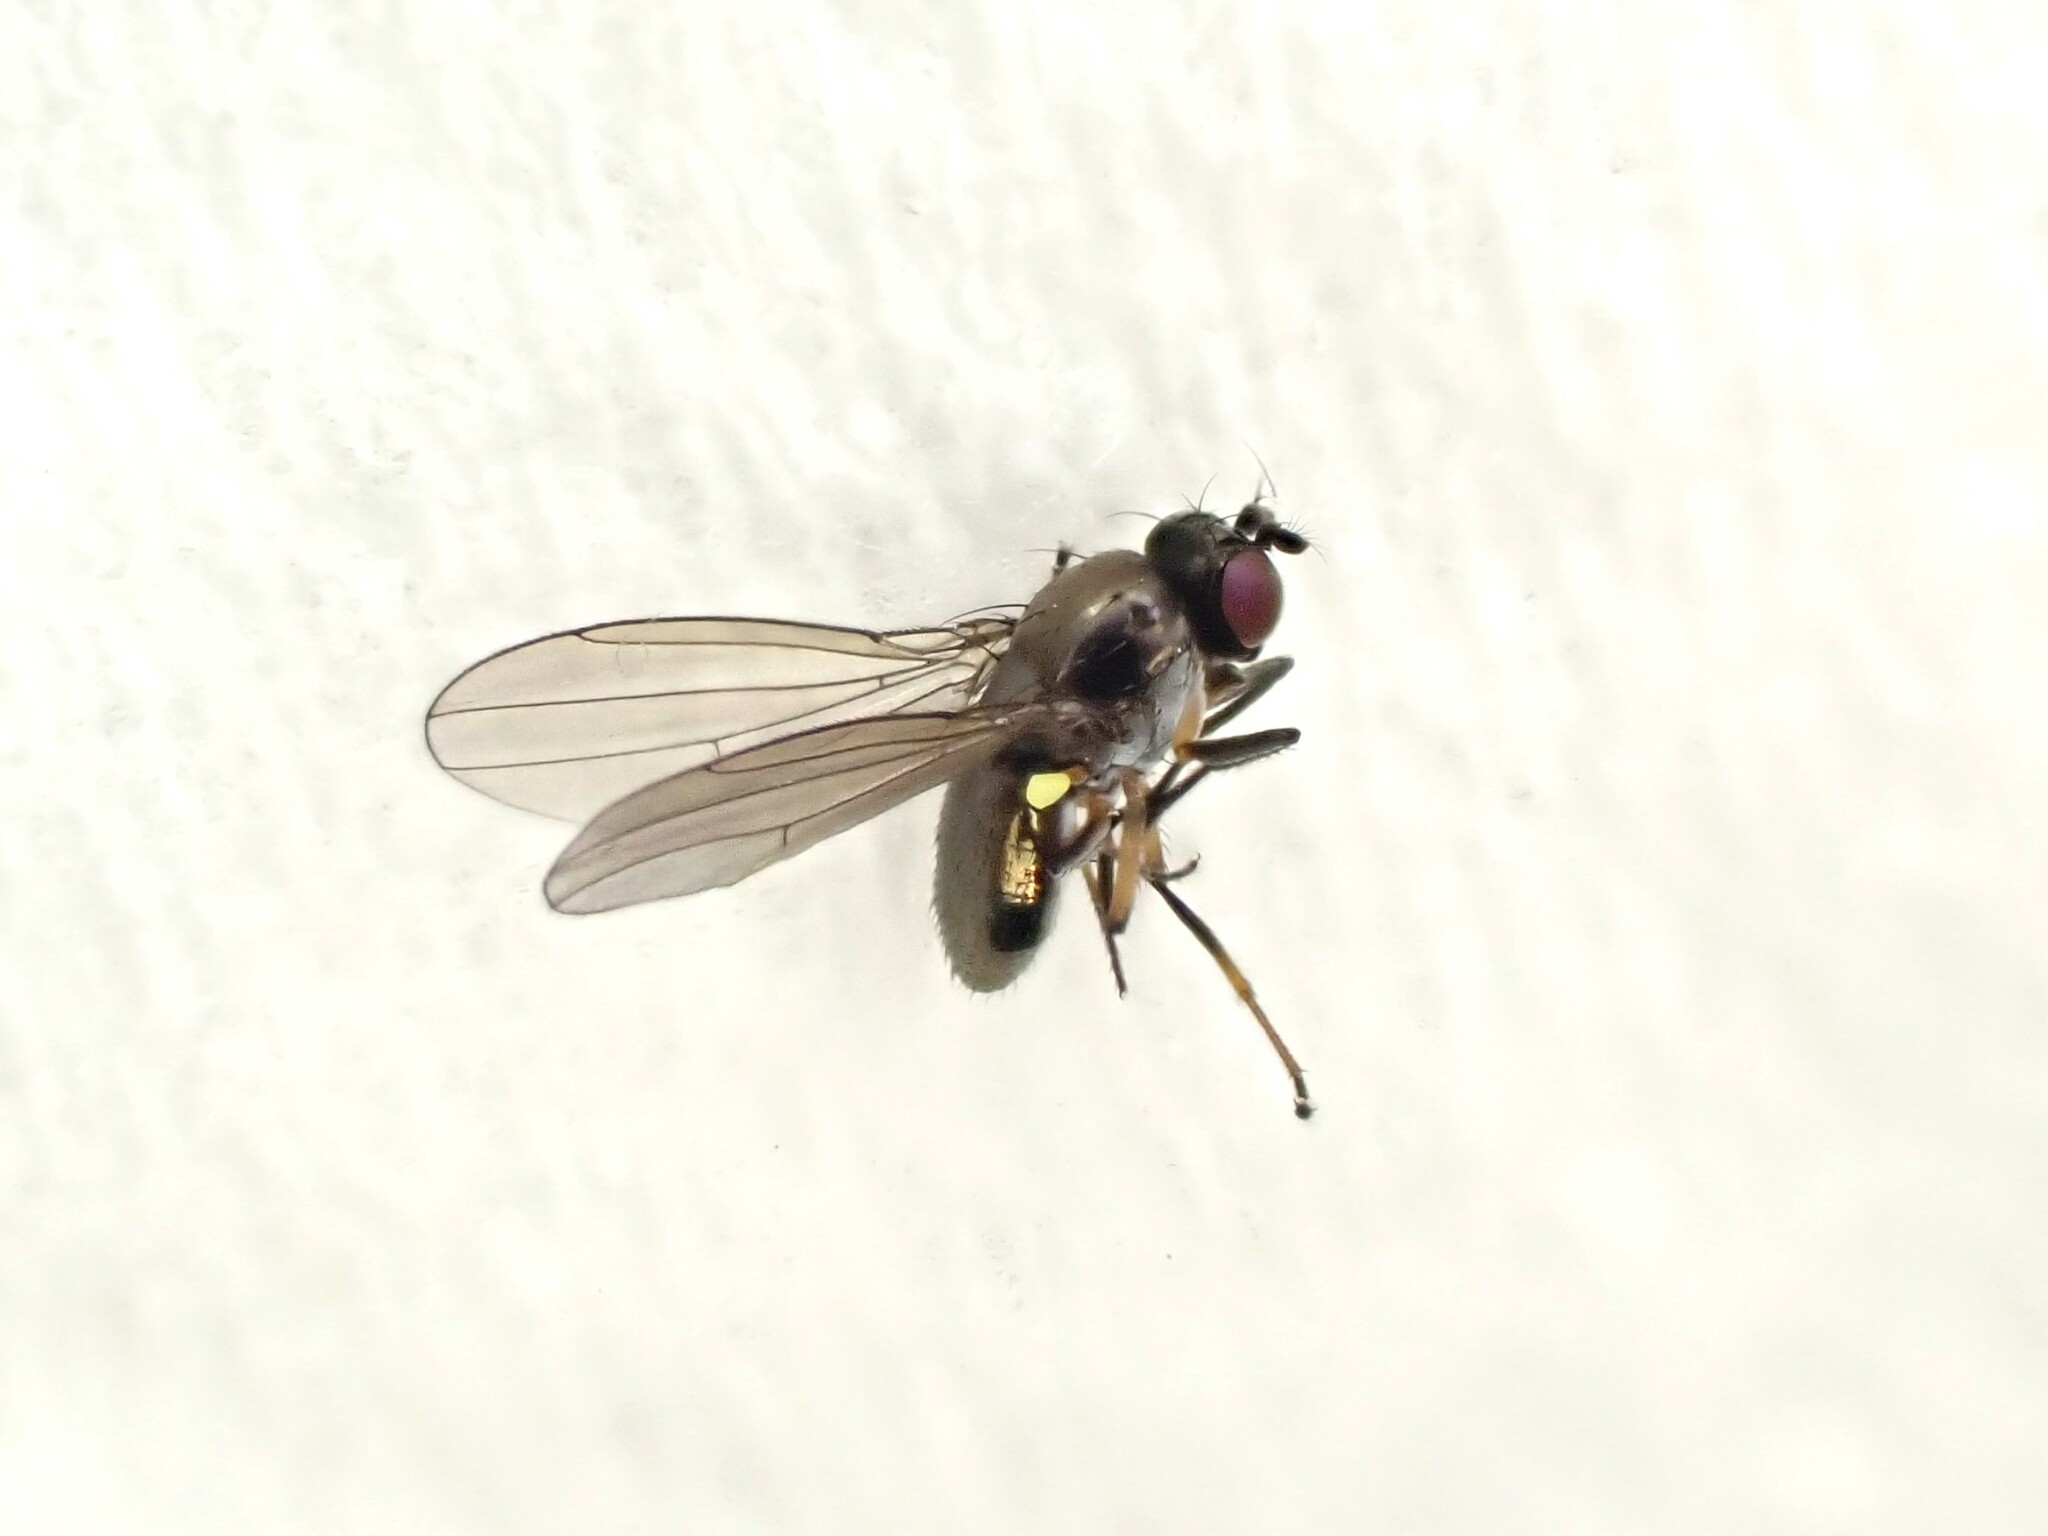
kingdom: Animalia
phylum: Arthropoda
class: Insecta
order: Diptera
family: Ephydridae
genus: Hydrellia
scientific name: Hydrellia tritici
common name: Shore fly
